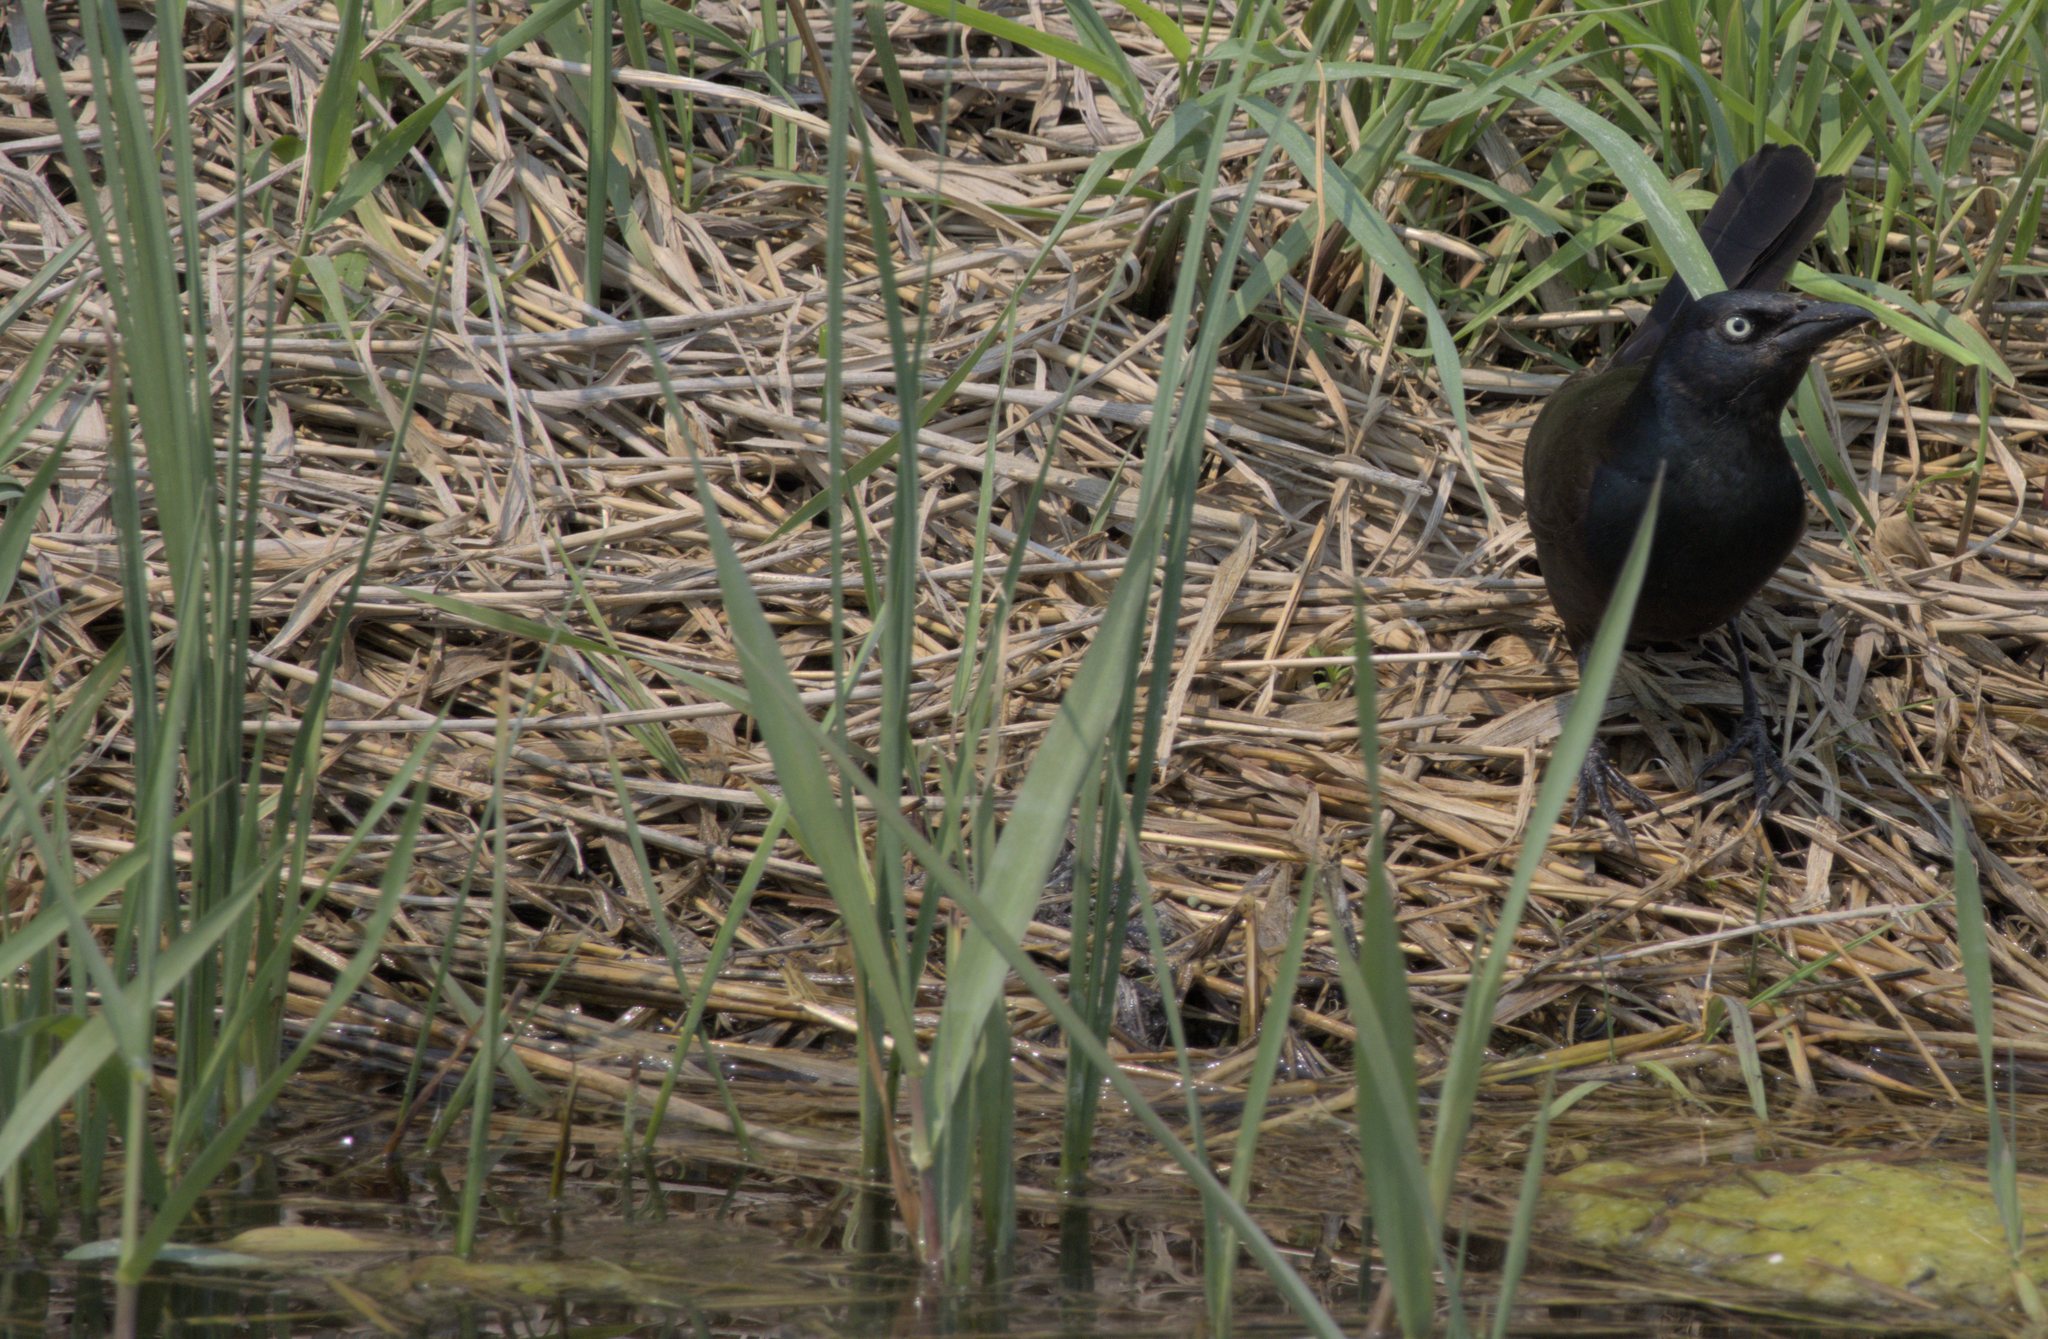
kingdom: Animalia
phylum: Chordata
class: Aves
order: Passeriformes
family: Icteridae
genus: Quiscalus
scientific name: Quiscalus quiscula
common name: Common grackle
